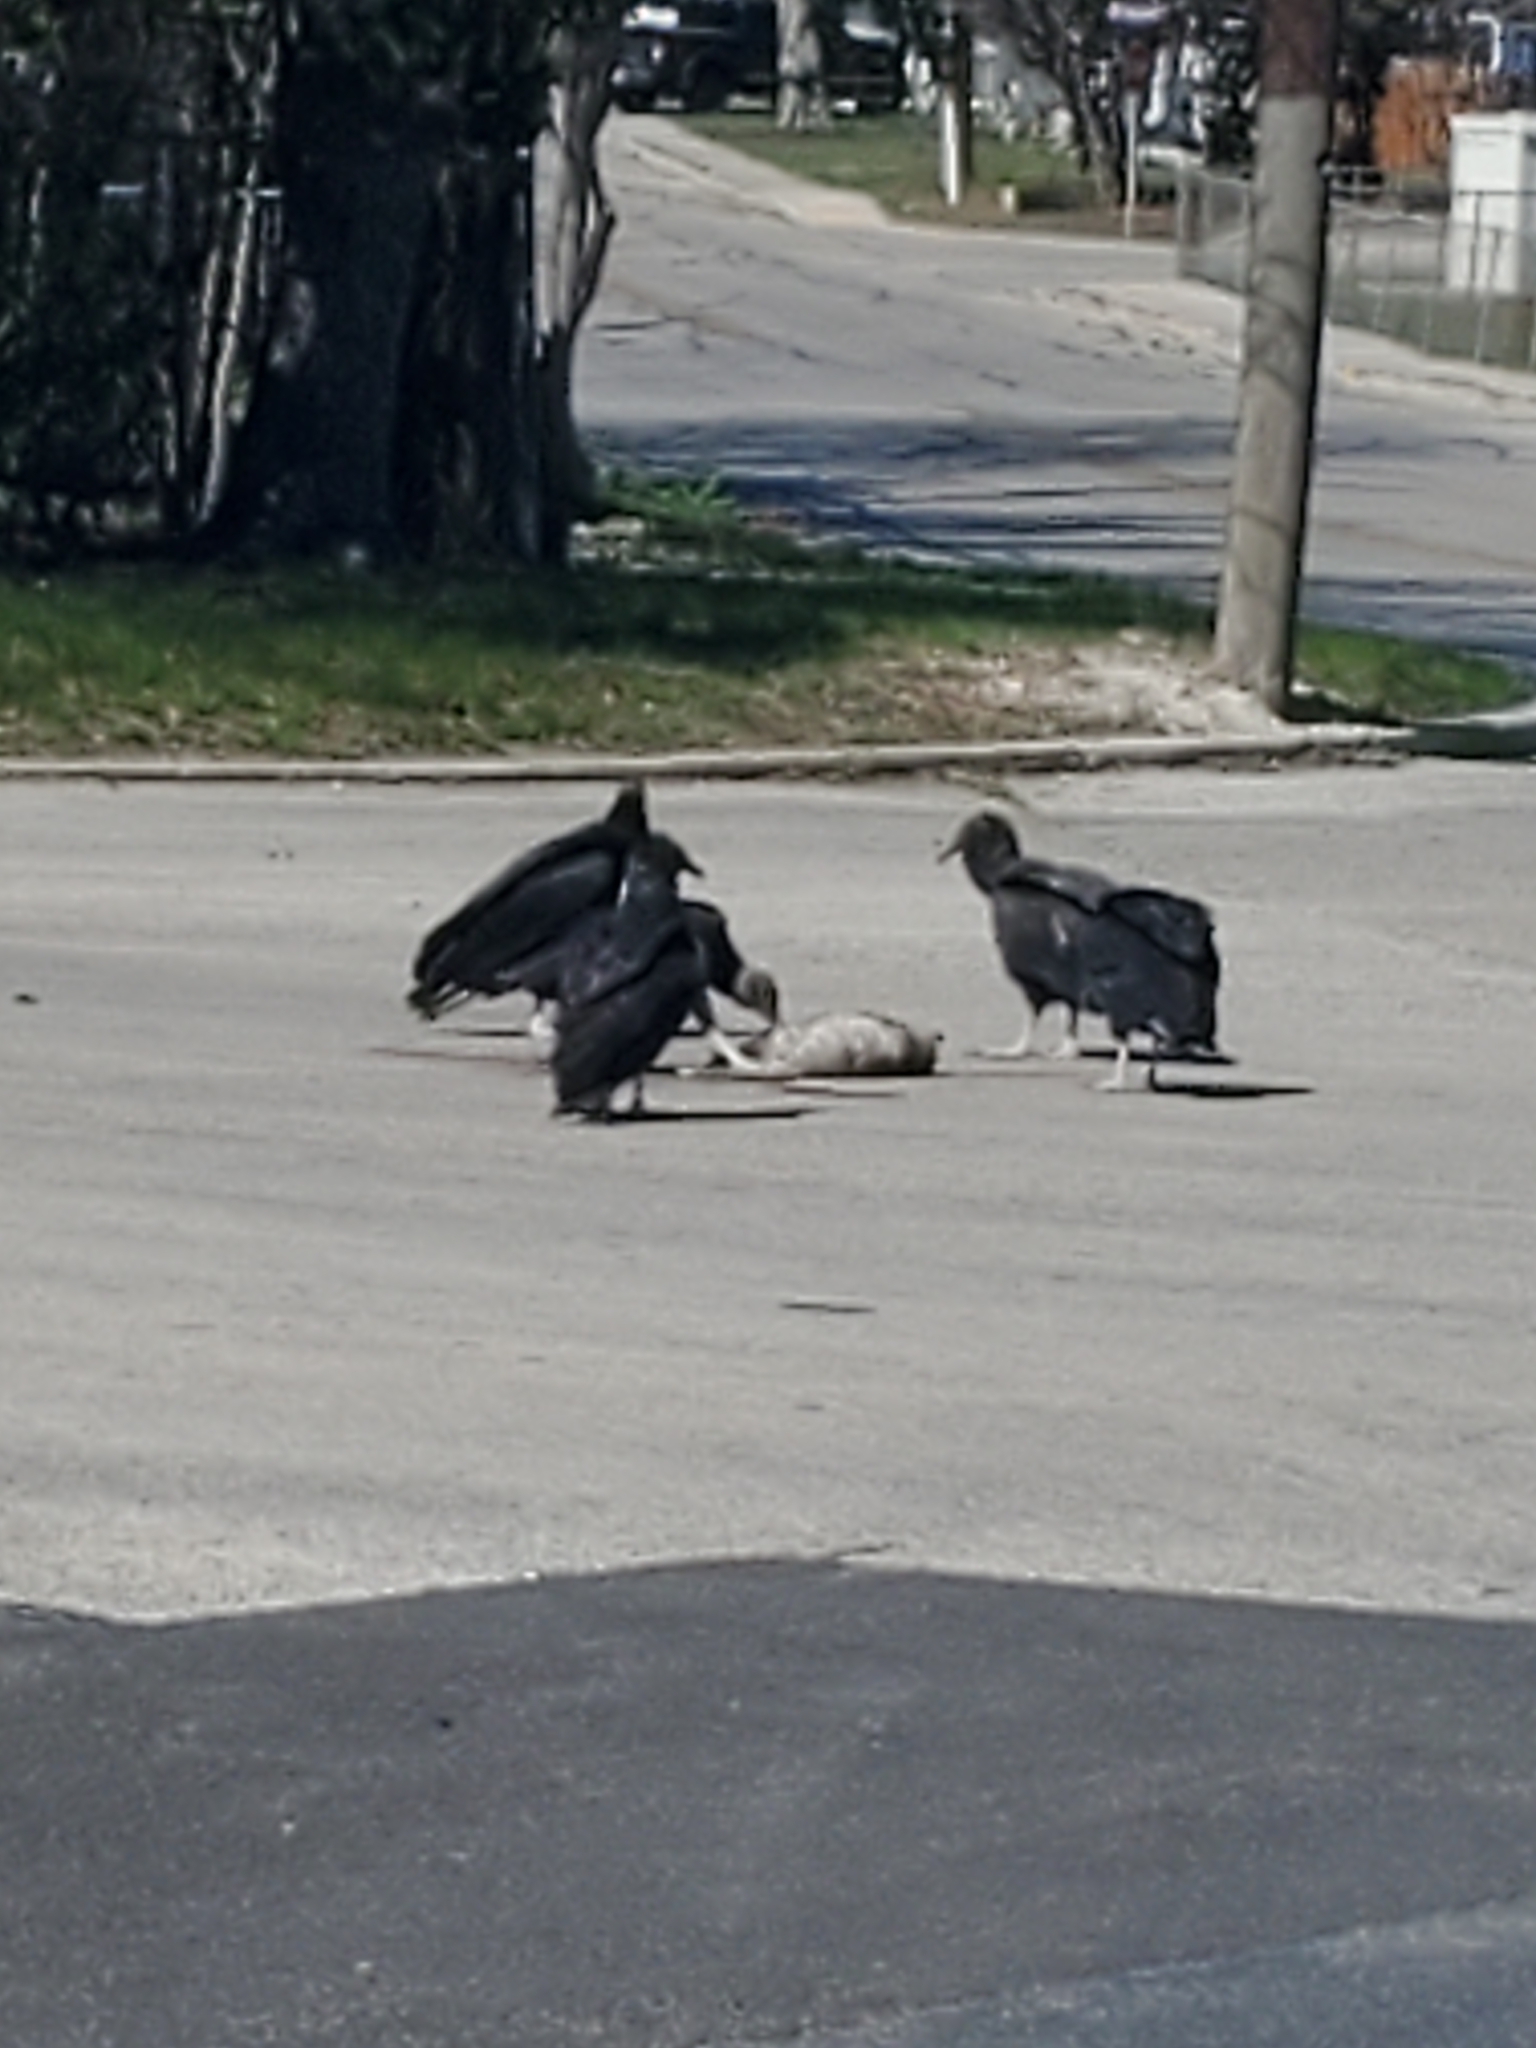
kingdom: Animalia
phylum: Chordata
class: Aves
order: Accipitriformes
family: Cathartidae
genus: Coragyps
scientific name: Coragyps atratus
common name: Black vulture
